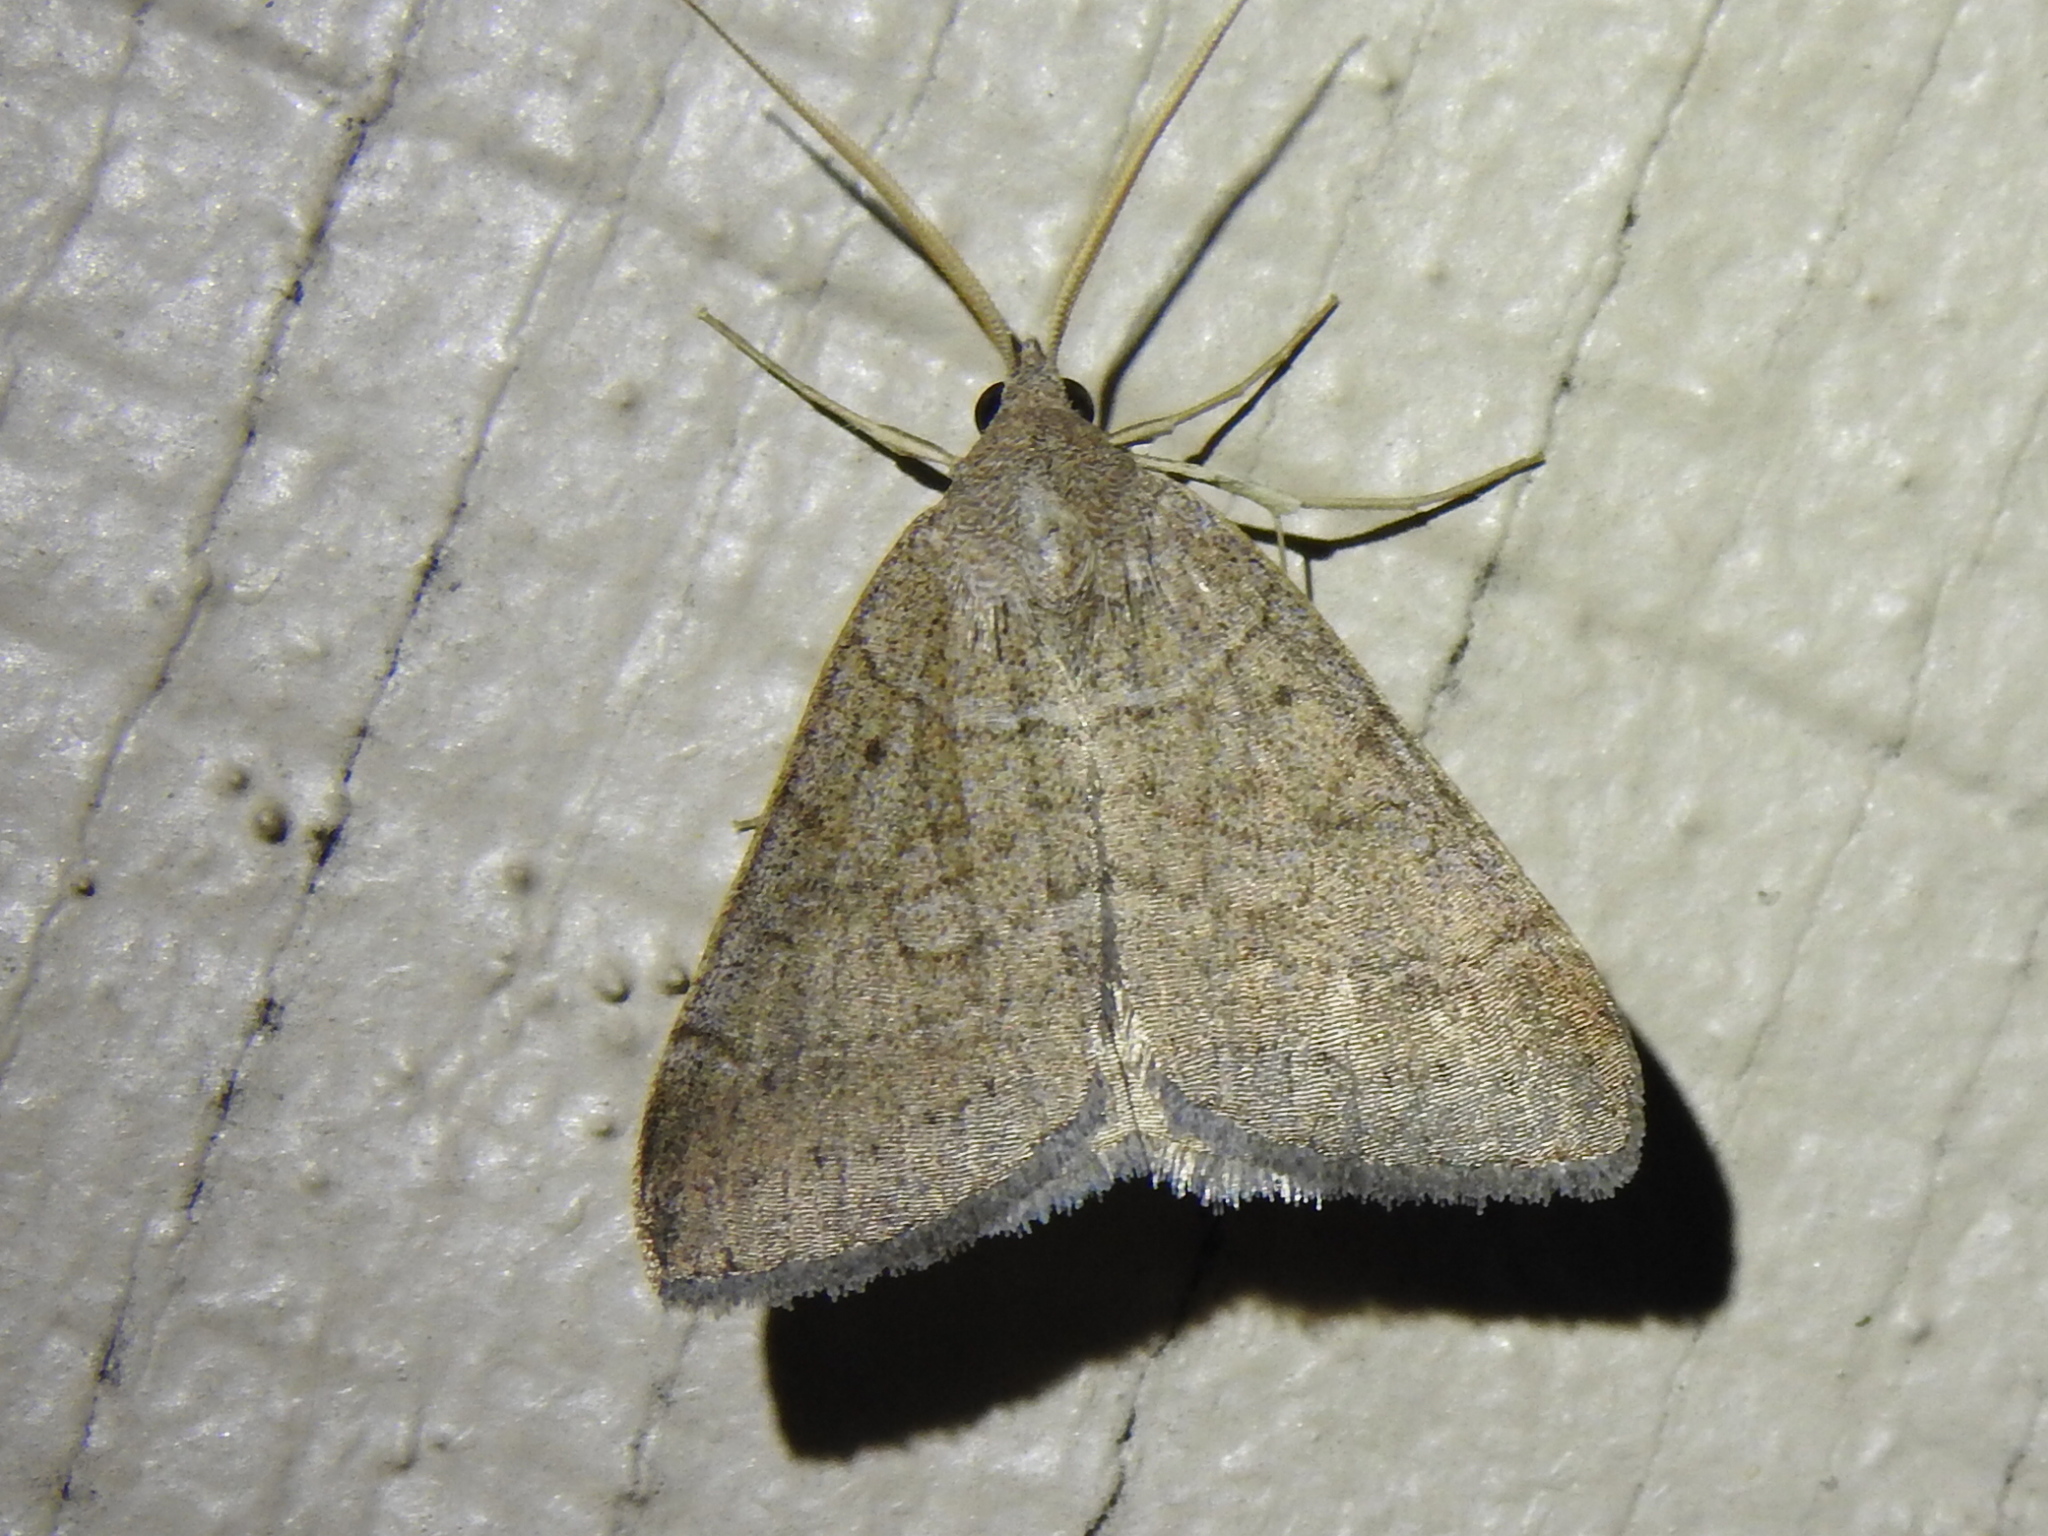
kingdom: Animalia
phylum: Arthropoda
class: Insecta
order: Lepidoptera
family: Erebidae
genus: Caenurgia
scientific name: Caenurgia chloropha
